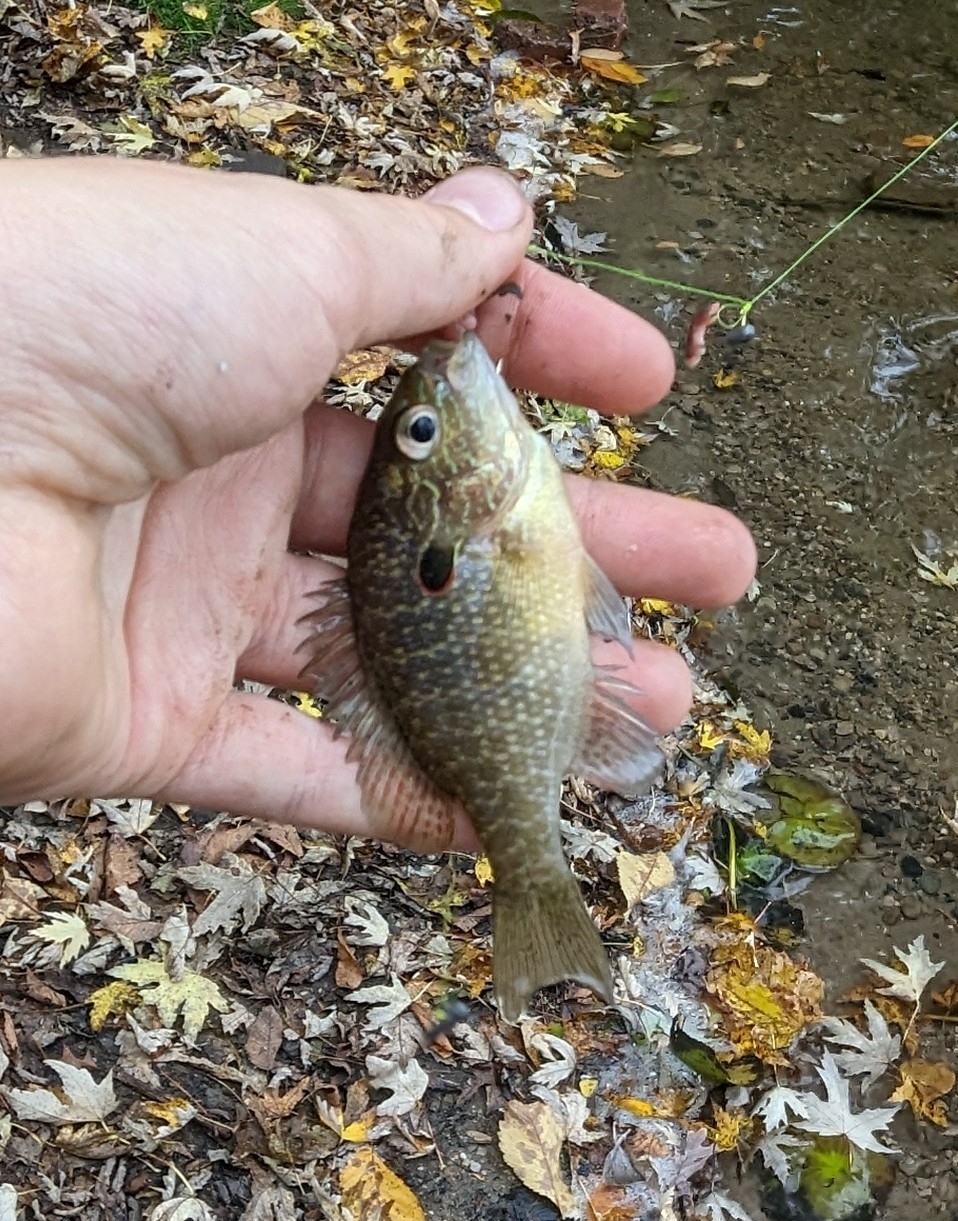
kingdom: Animalia
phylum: Chordata
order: Perciformes
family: Centrarchidae
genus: Lepomis
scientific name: Lepomis peltastes
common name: Northern sunfish
